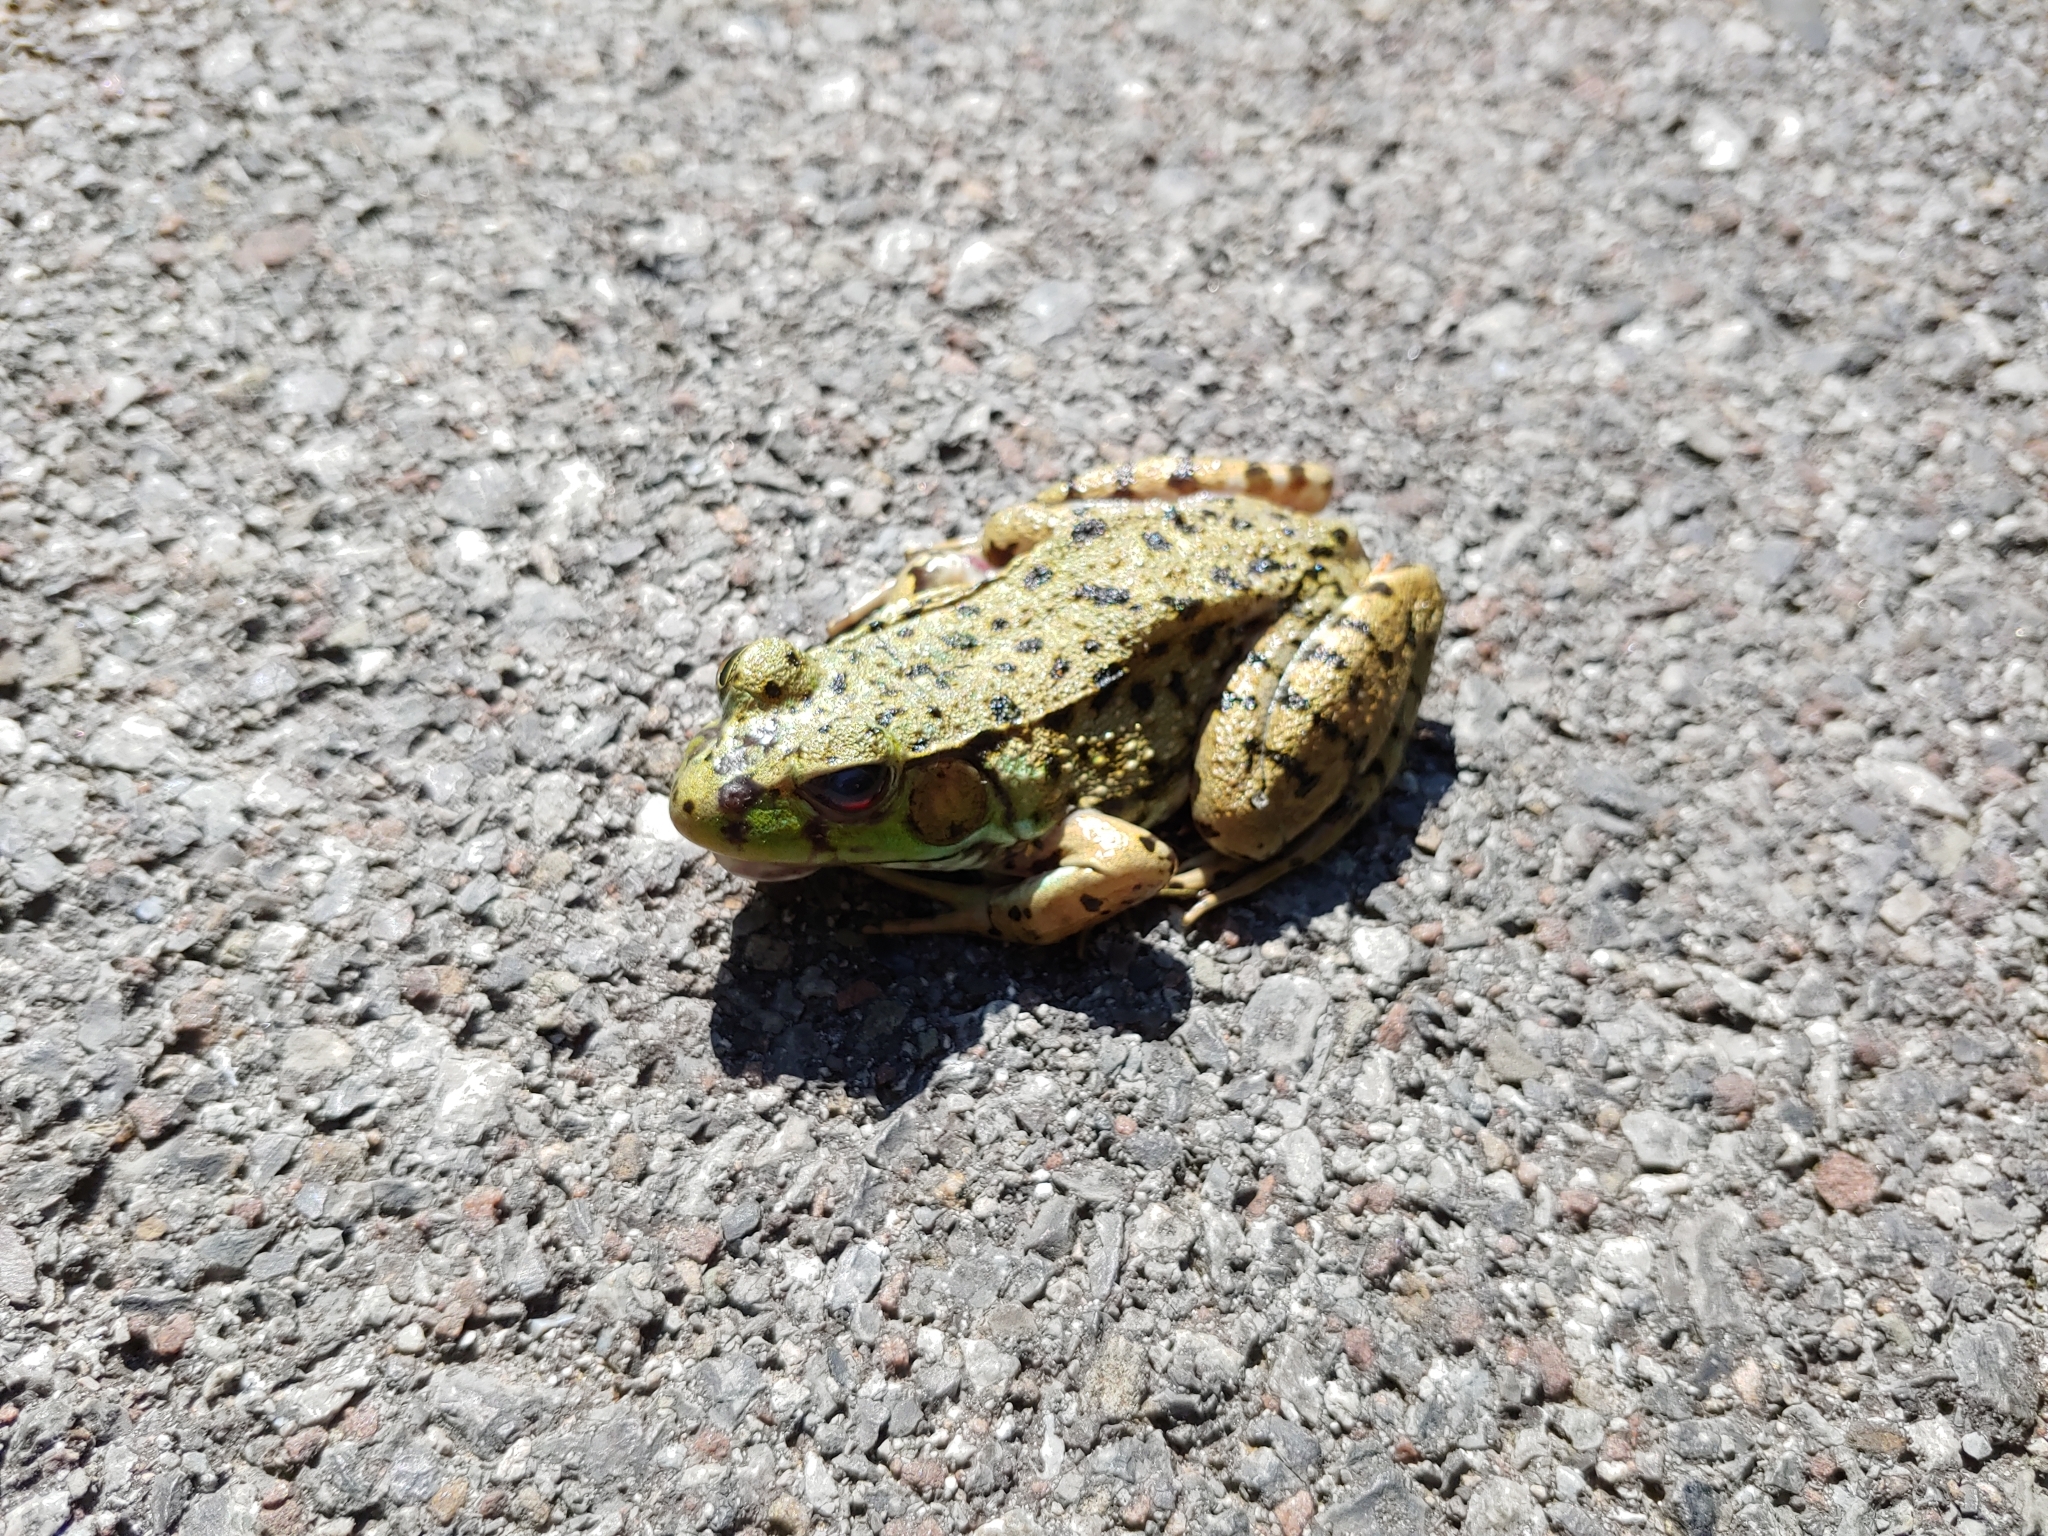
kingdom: Animalia
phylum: Chordata
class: Amphibia
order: Anura
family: Ranidae
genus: Lithobates
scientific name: Lithobates clamitans
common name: Green frog
